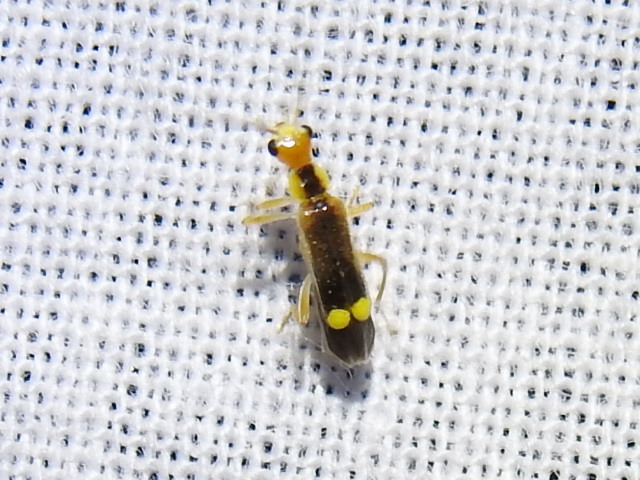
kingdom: Animalia
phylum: Arthropoda
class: Insecta
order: Coleoptera
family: Cantharidae
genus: Malthinus
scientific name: Malthinus occipitalis
